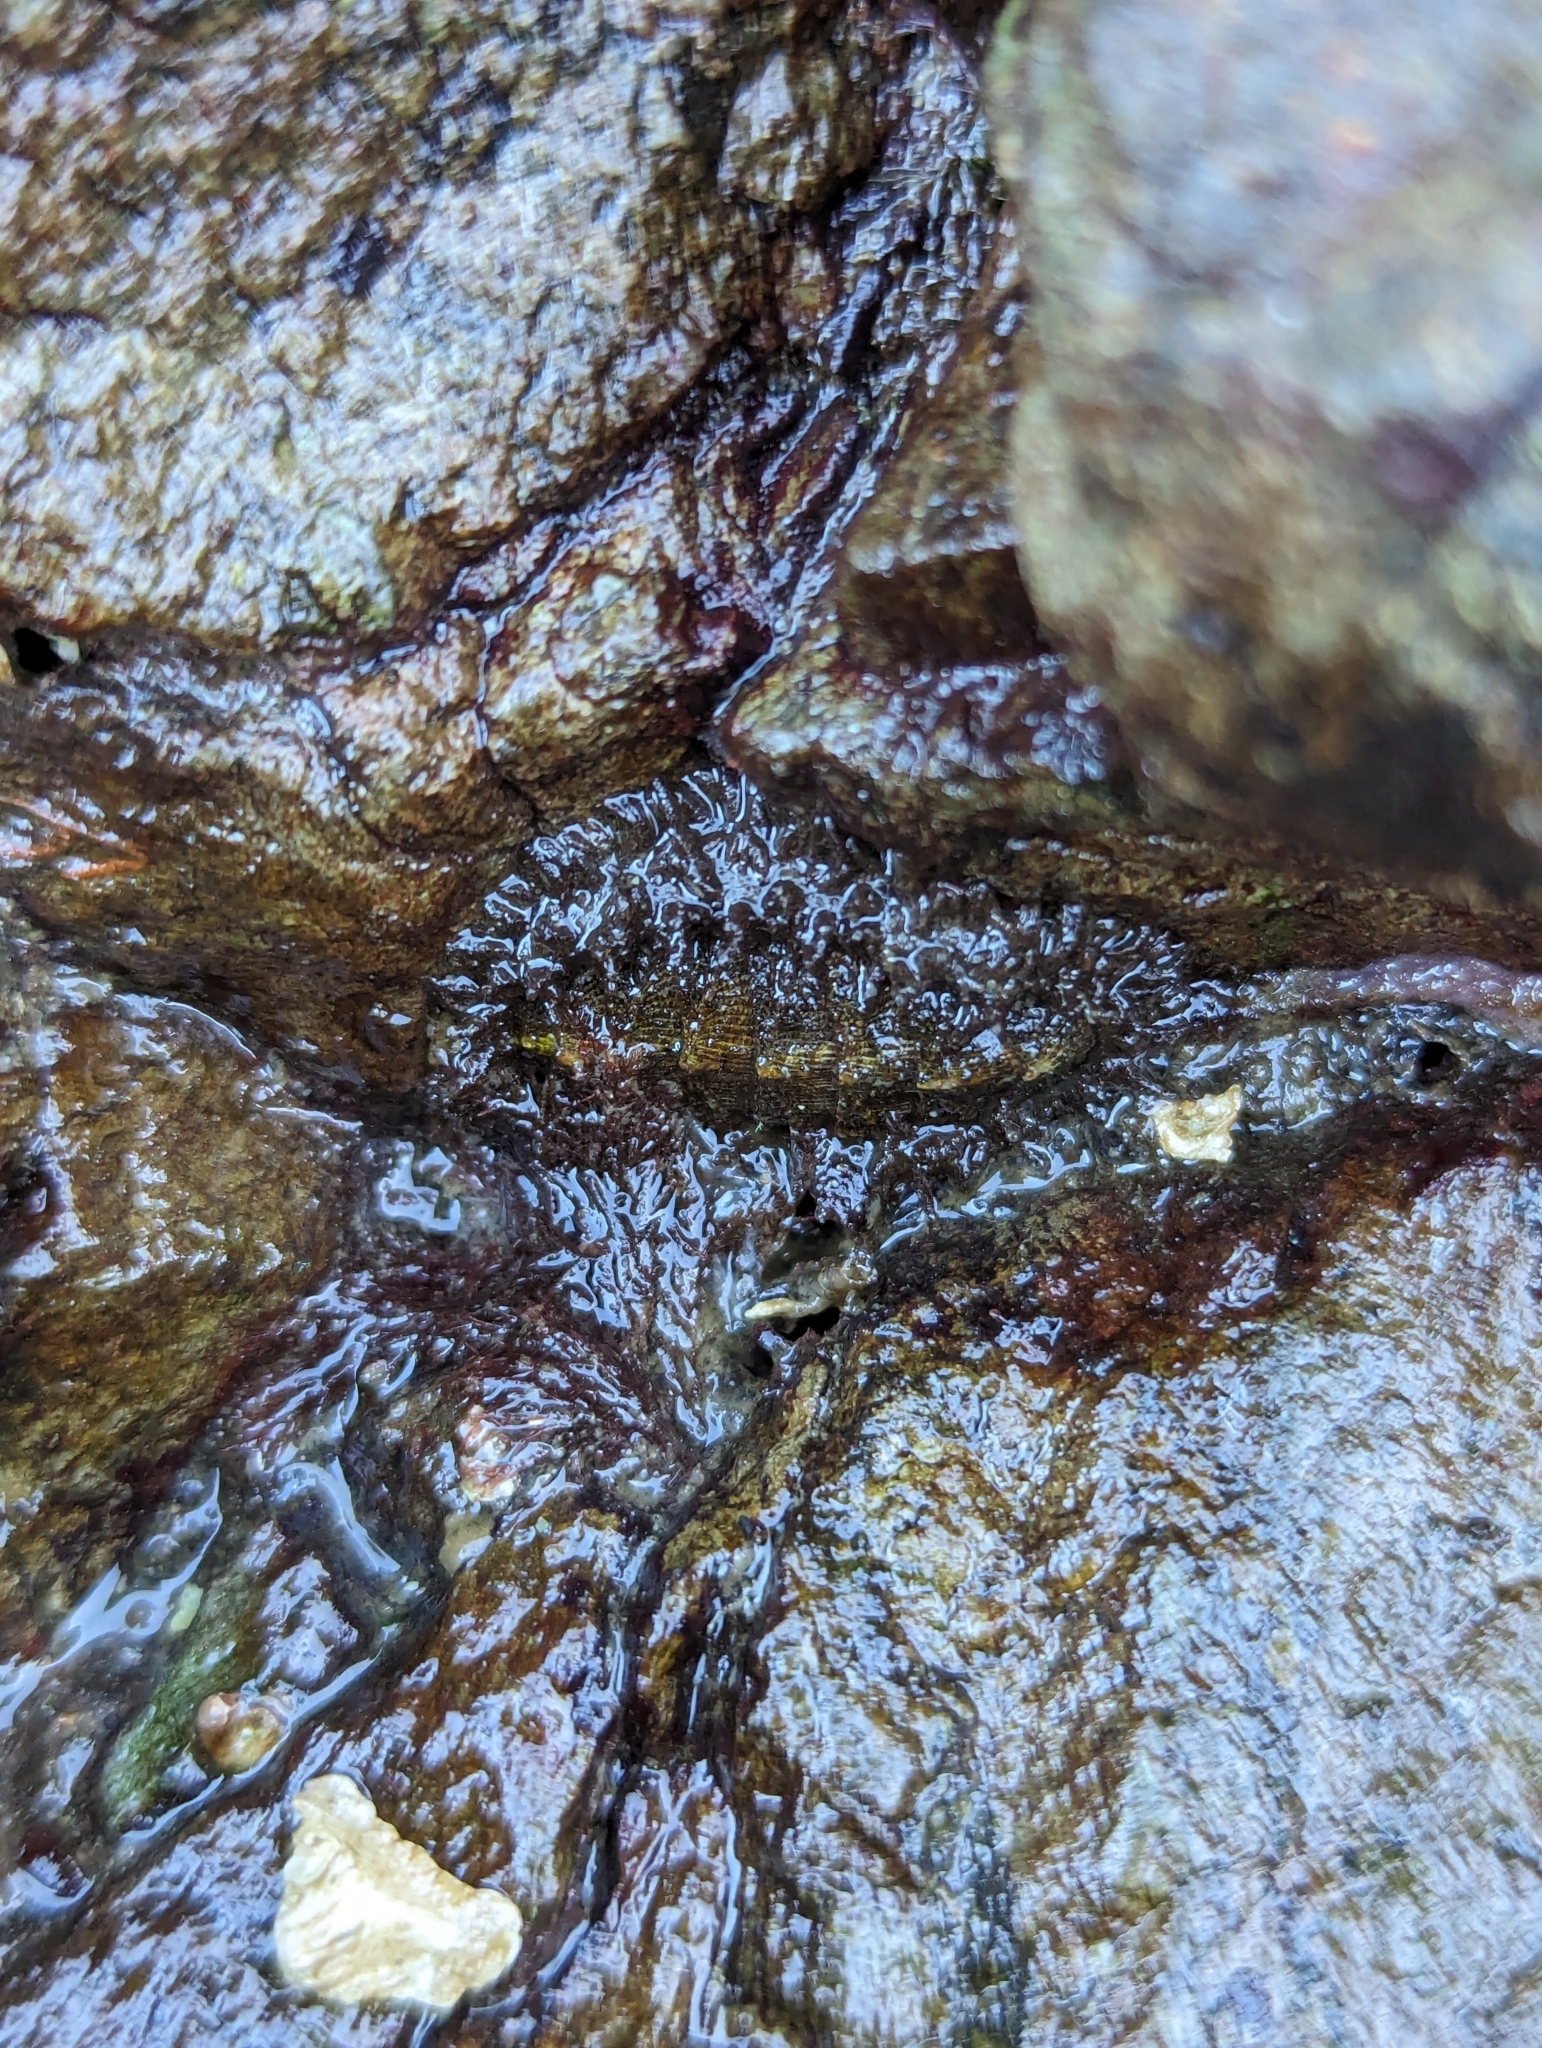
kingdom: Animalia
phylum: Mollusca
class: Polyplacophora
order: Chitonida
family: Mopaliidae
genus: Mopalia
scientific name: Mopalia muscosa
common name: Mossy chiton
